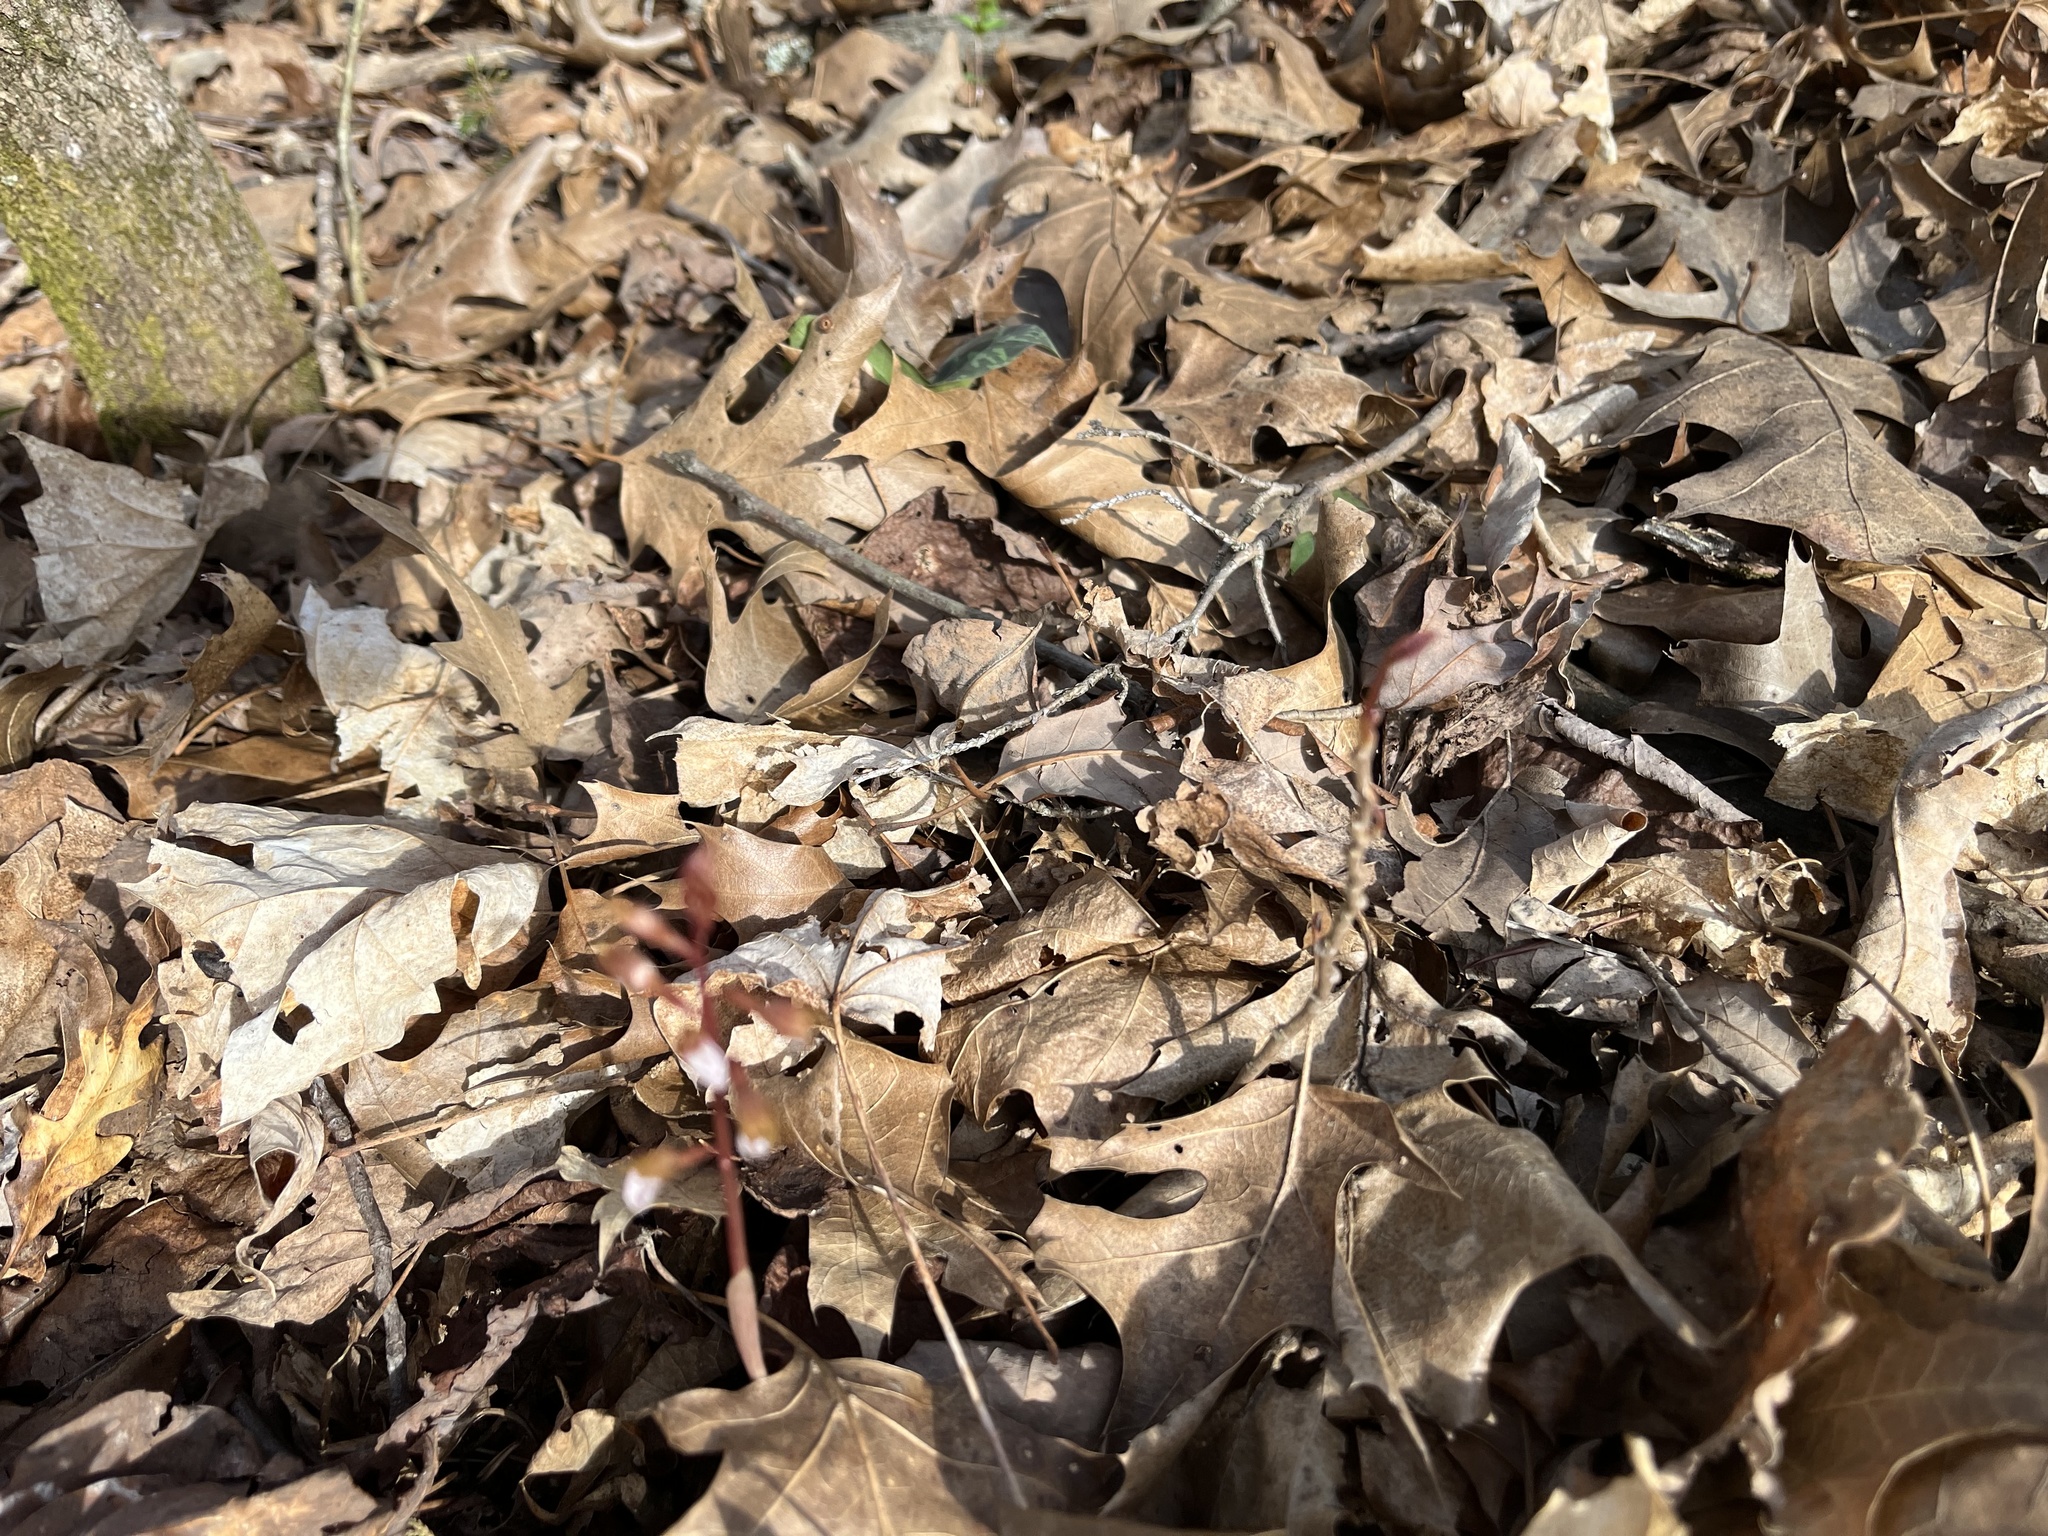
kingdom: Plantae
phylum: Tracheophyta
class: Liliopsida
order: Asparagales
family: Orchidaceae
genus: Corallorhiza
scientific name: Corallorhiza wisteriana
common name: Spring coralroot
